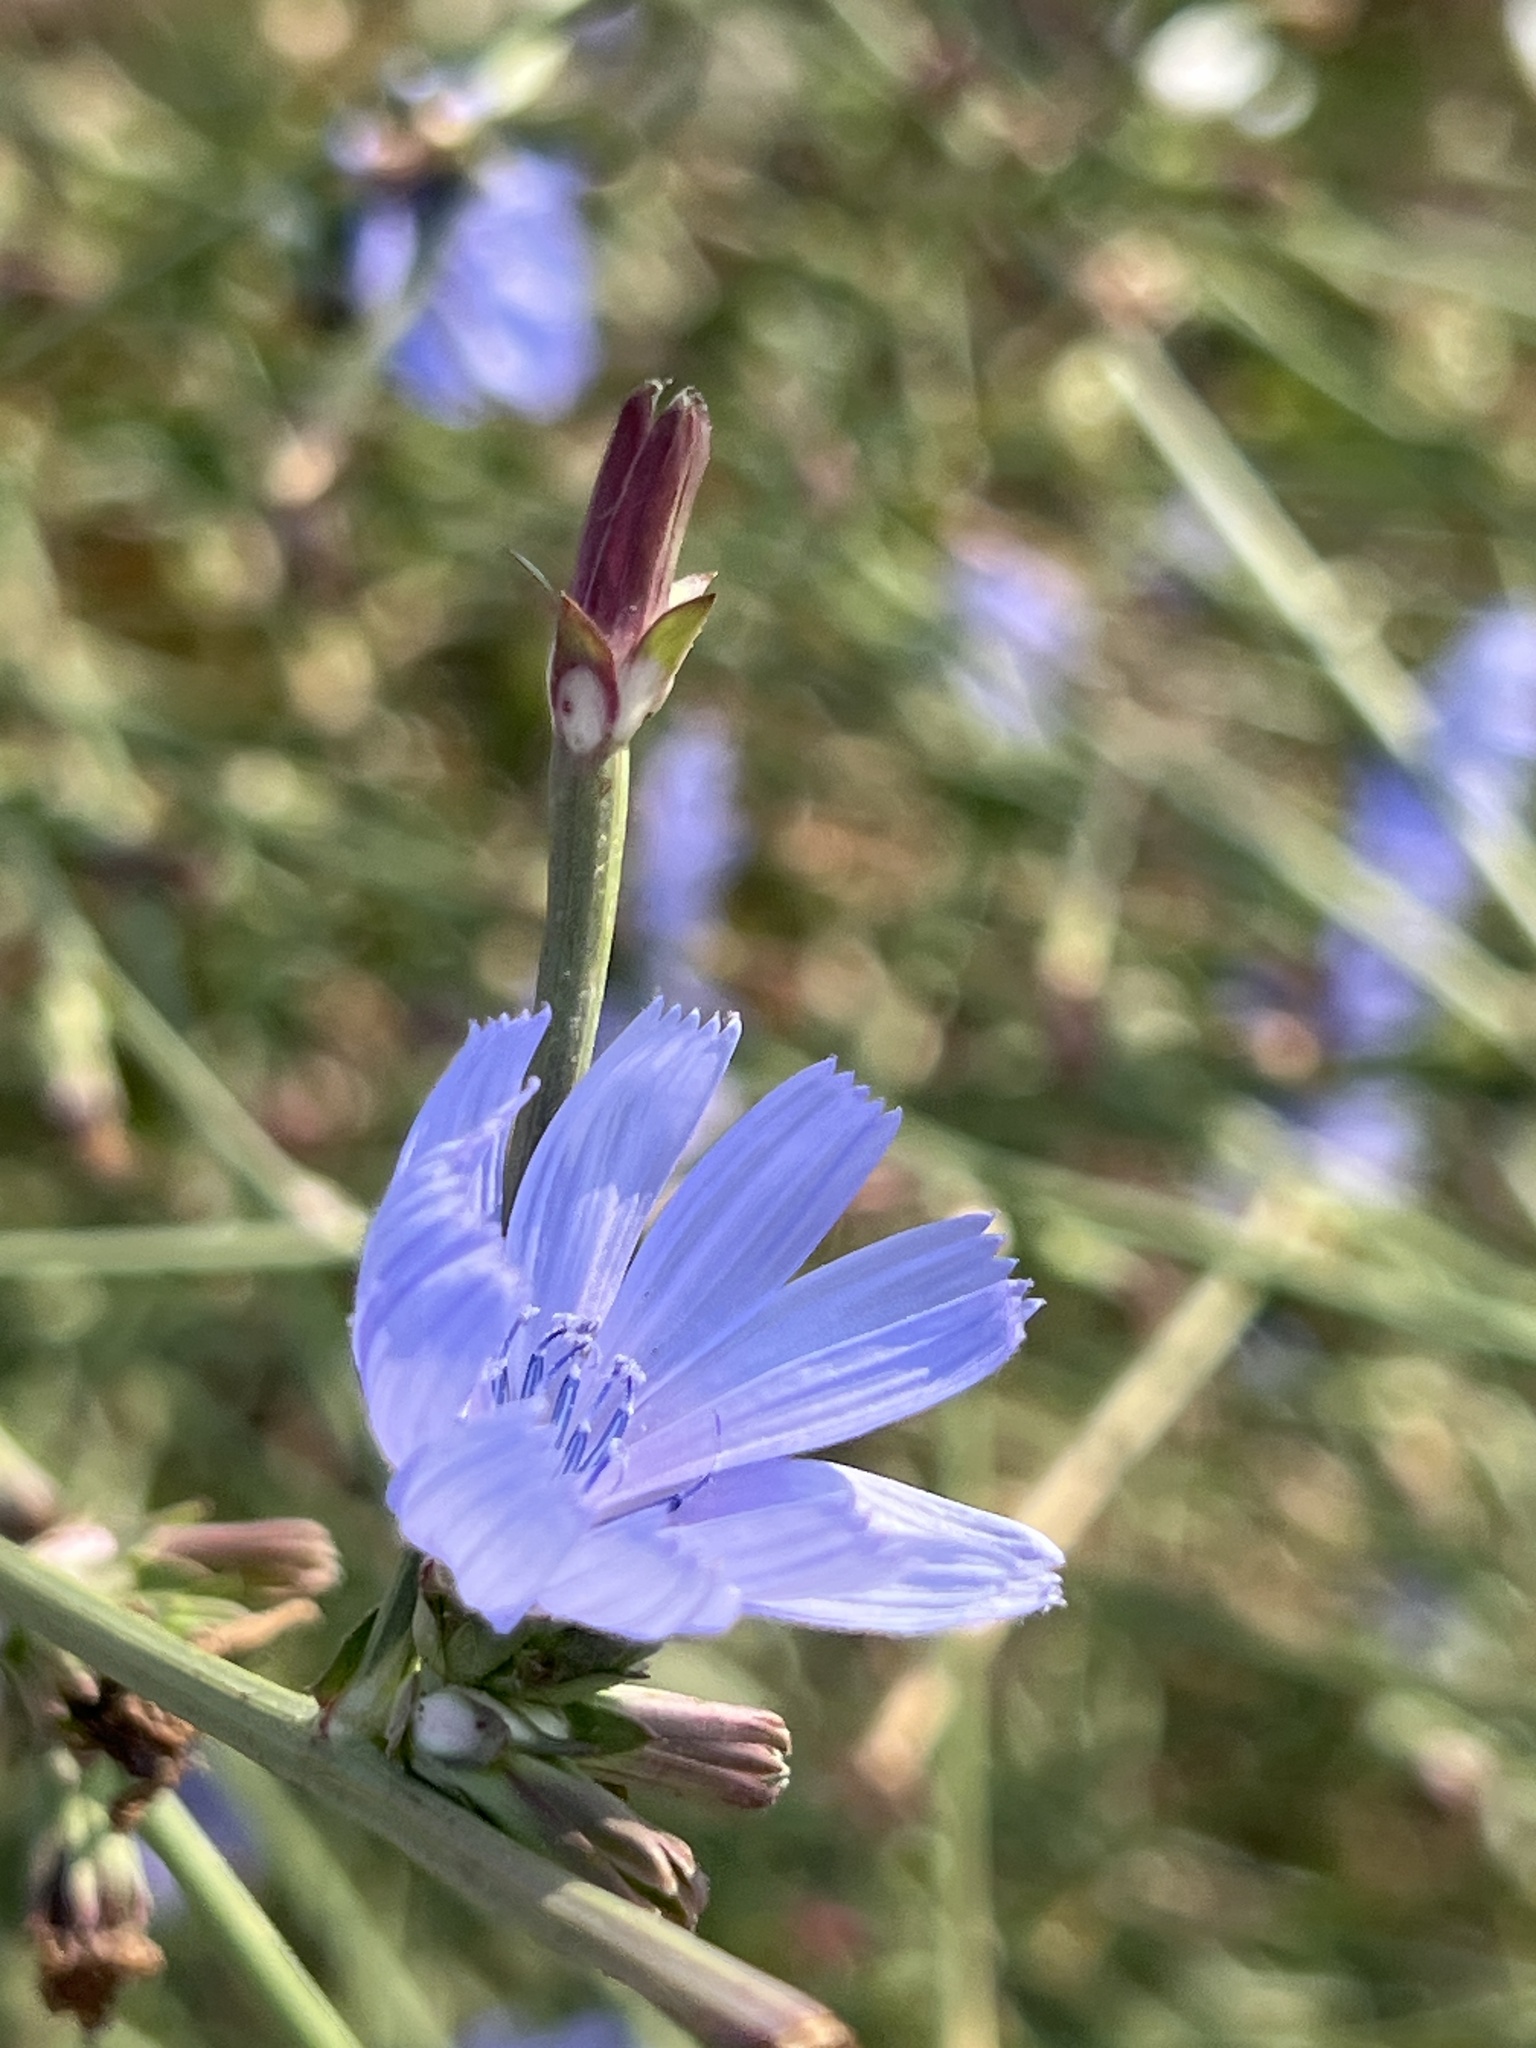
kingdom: Plantae
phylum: Tracheophyta
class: Magnoliopsida
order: Asterales
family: Asteraceae
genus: Cichorium
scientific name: Cichorium intybus
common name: Chicory
